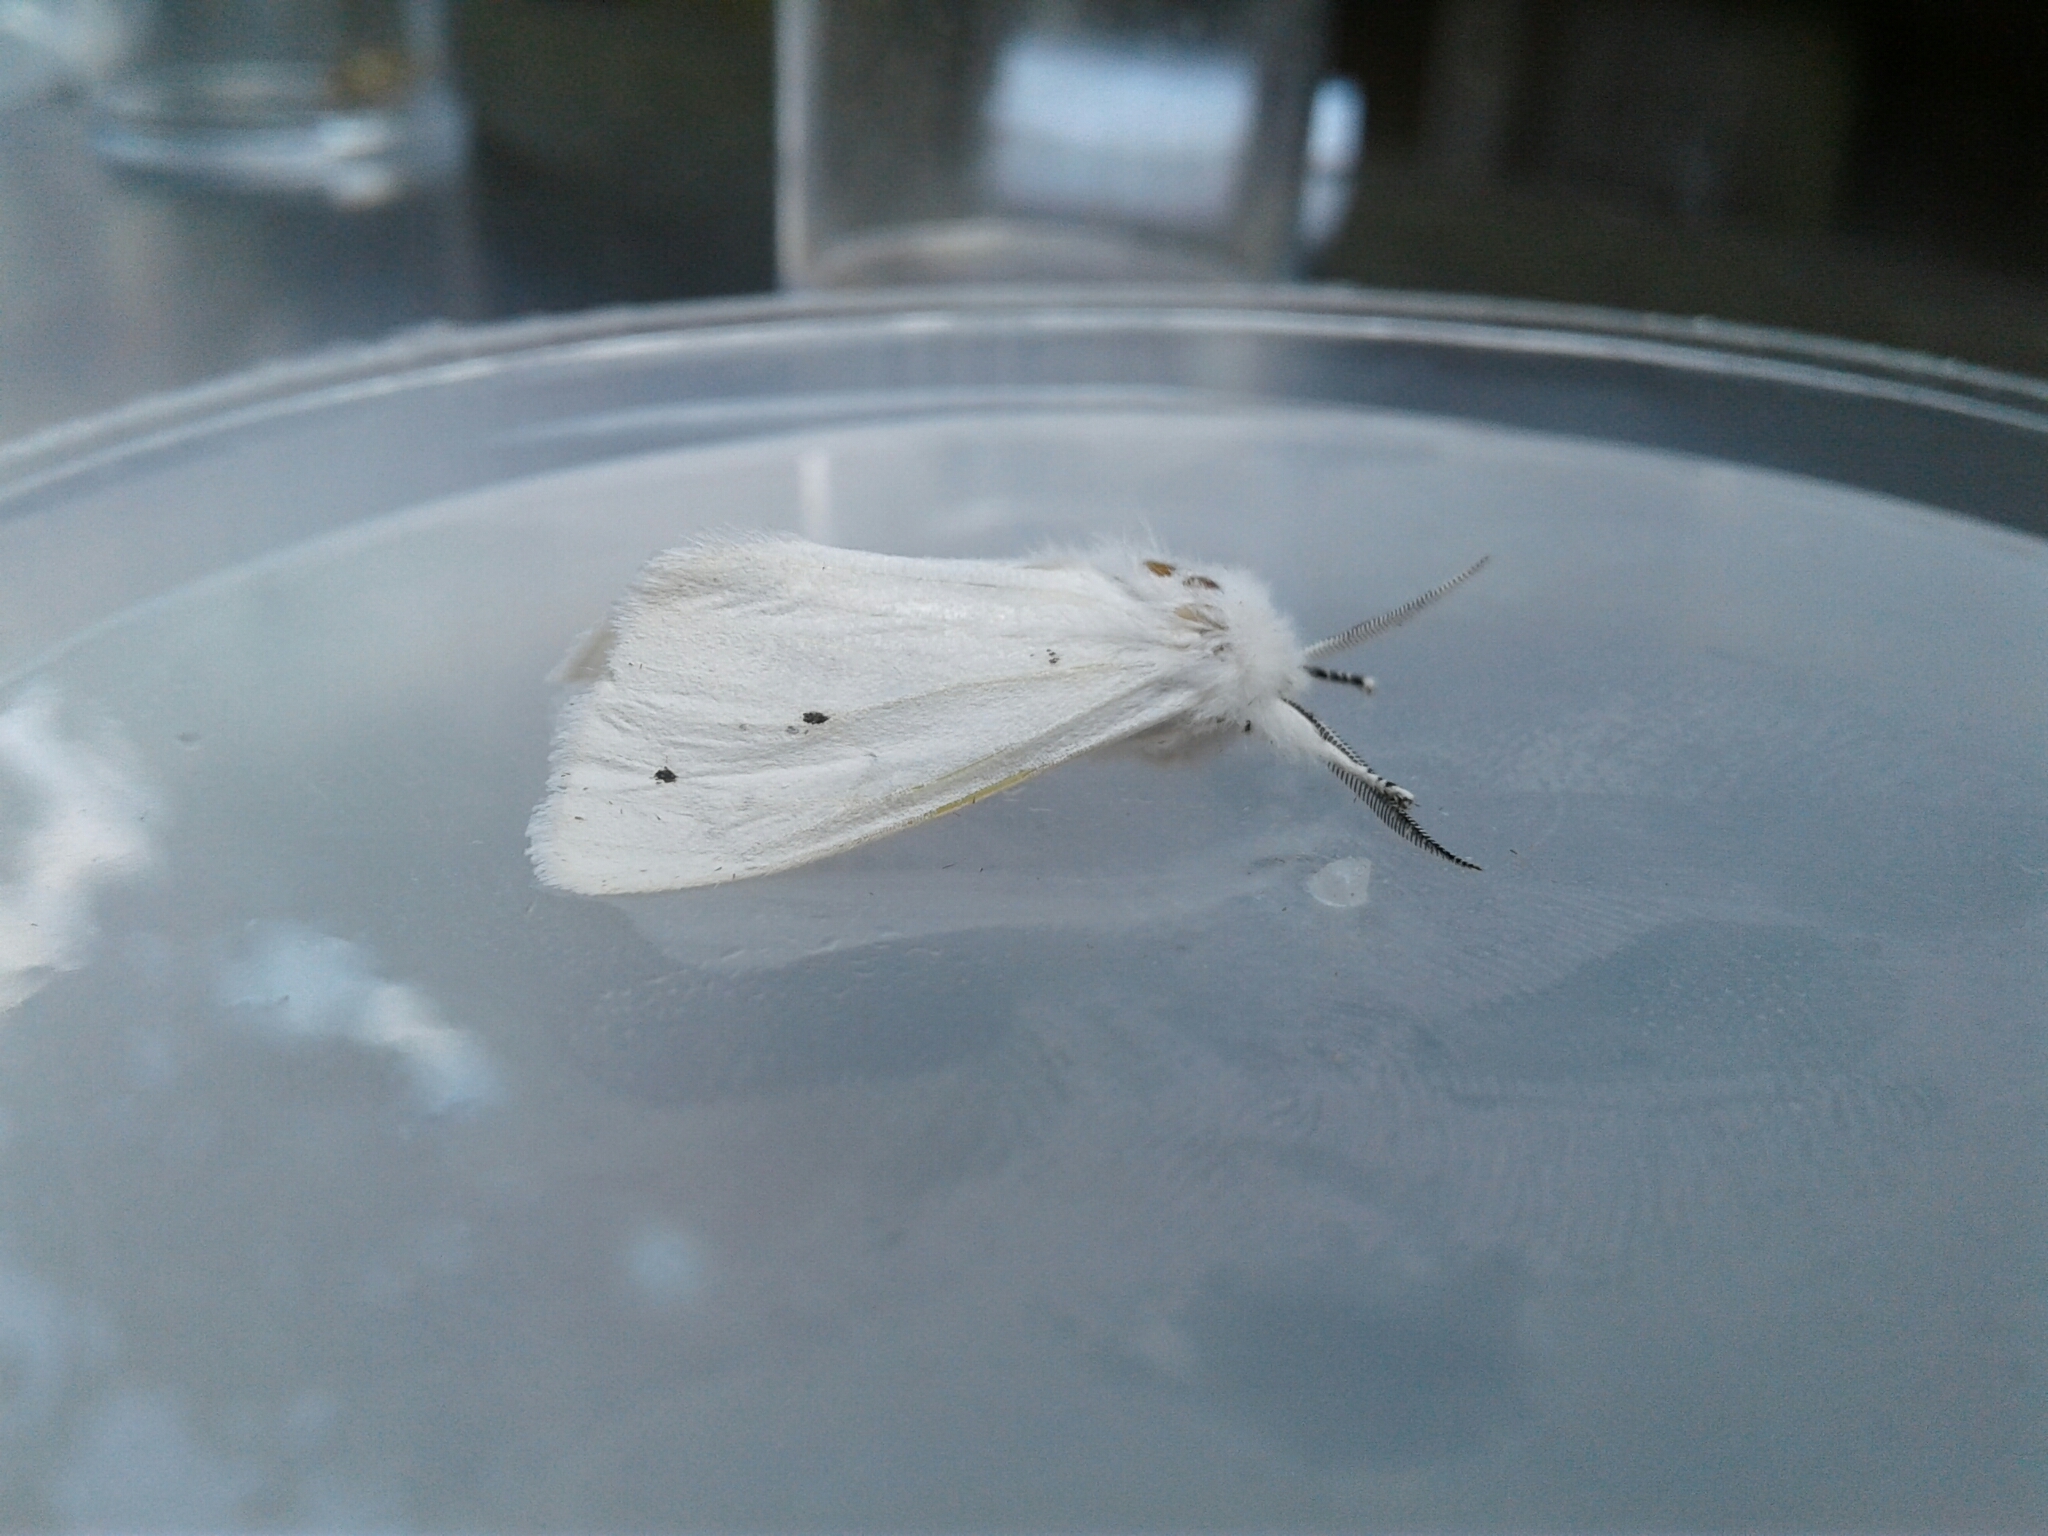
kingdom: Animalia
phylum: Arthropoda
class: Insecta
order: Lepidoptera
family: Erebidae
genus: Spilosoma
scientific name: Spilosoma virginica
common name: Virginia tiger moth
